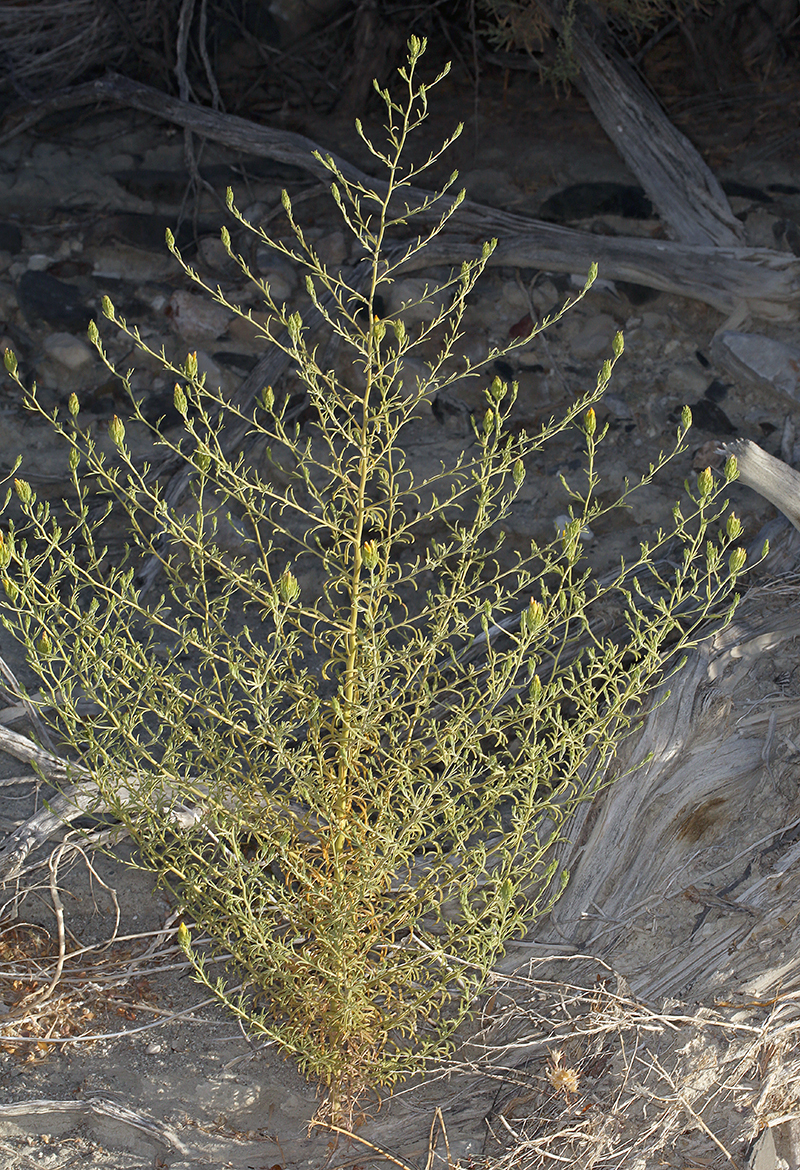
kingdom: Plantae
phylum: Tracheophyta
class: Magnoliopsida
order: Lamiales
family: Orobanchaceae
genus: Cordylanthus
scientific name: Cordylanthus ramosus
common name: Much-branched bird's-beak
